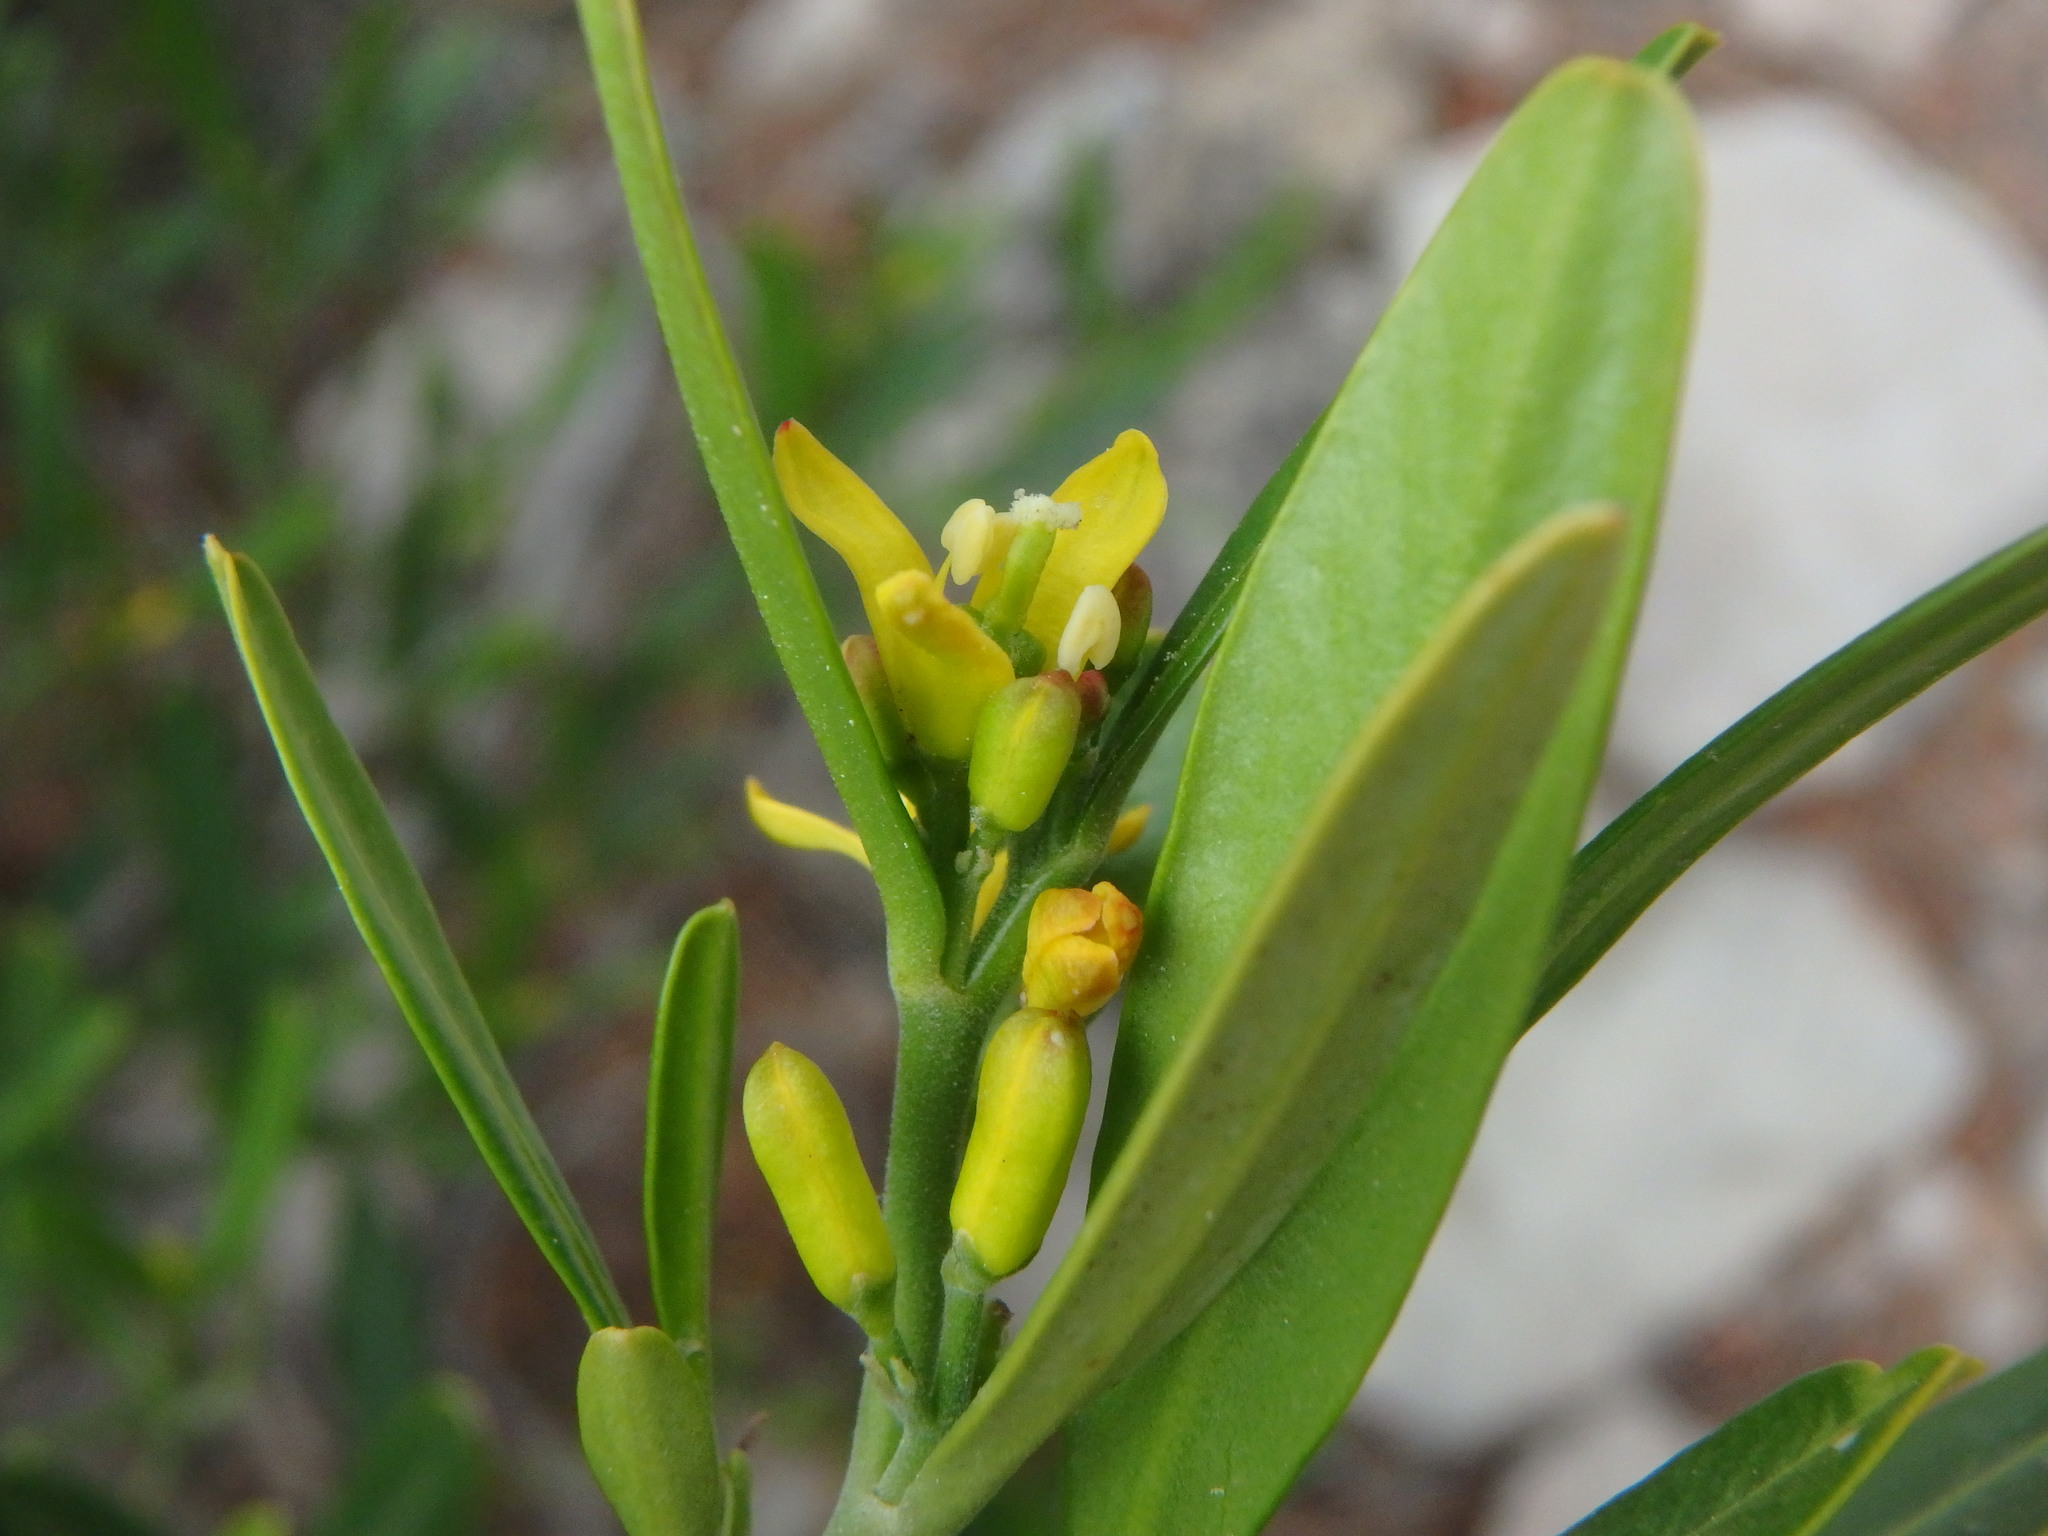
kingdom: Plantae
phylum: Tracheophyta
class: Magnoliopsida
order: Sapindales
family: Rutaceae
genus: Cneorum
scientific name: Cneorum tricoccon
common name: Spurge olive
